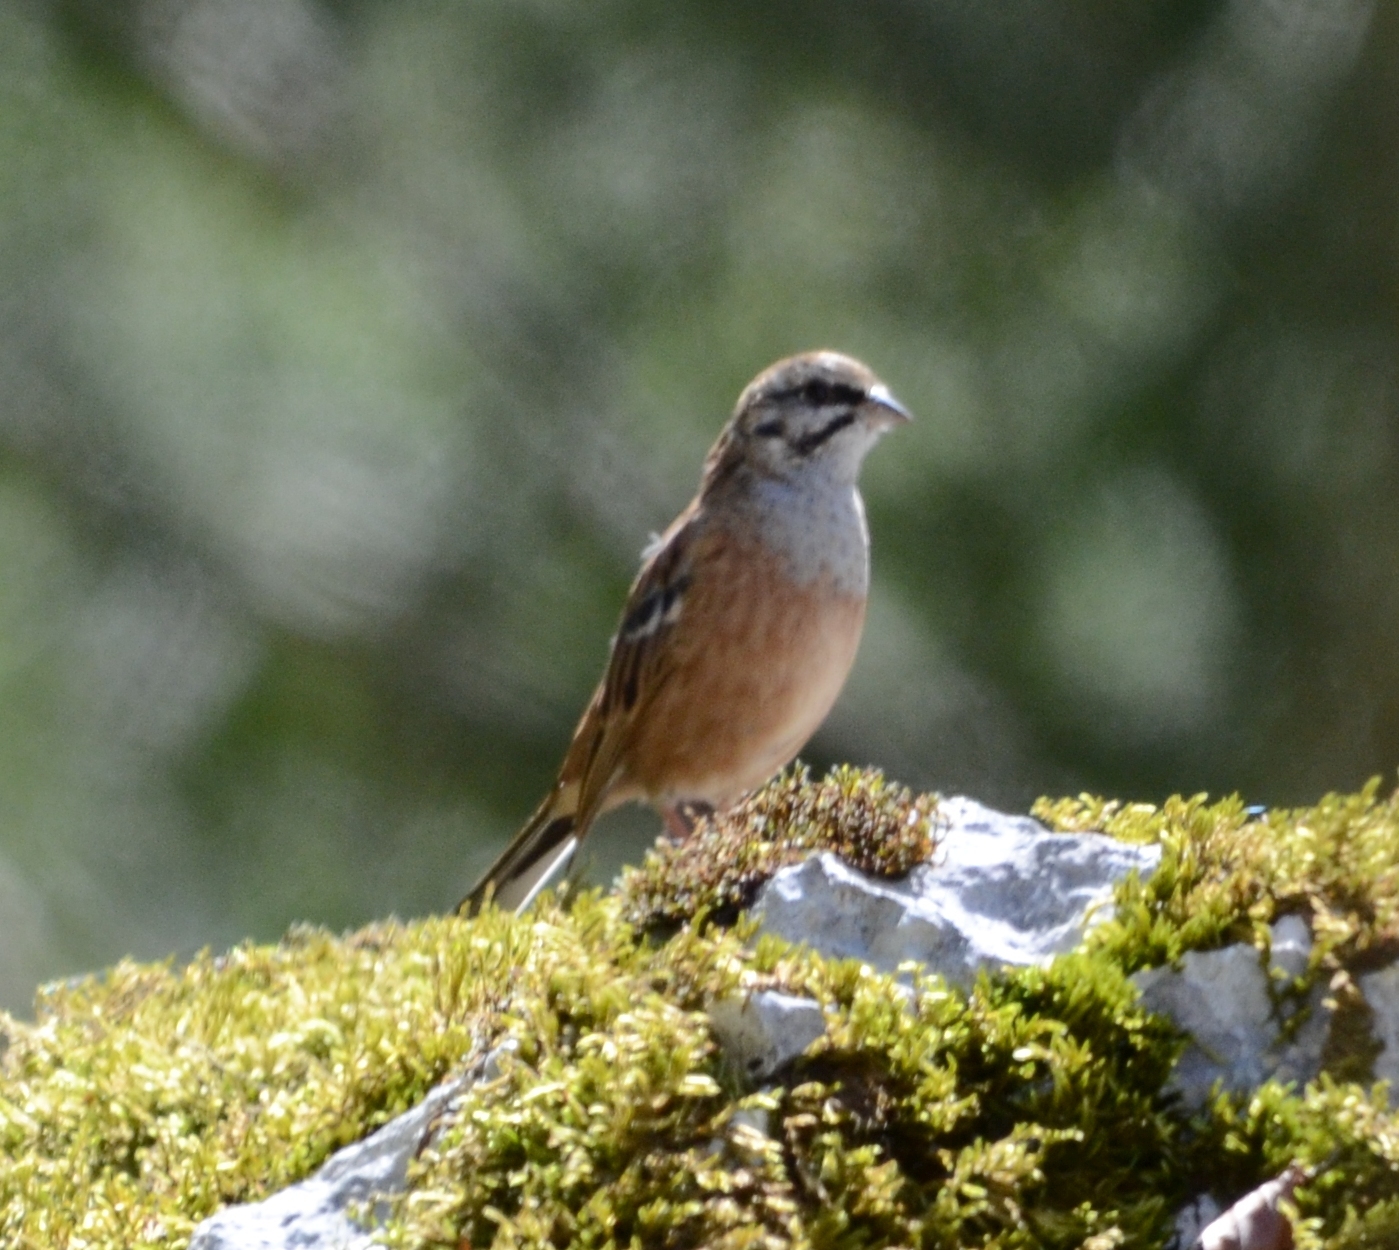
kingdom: Animalia
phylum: Chordata
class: Aves
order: Passeriformes
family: Emberizidae
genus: Emberiza
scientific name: Emberiza cia
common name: Rock bunting
